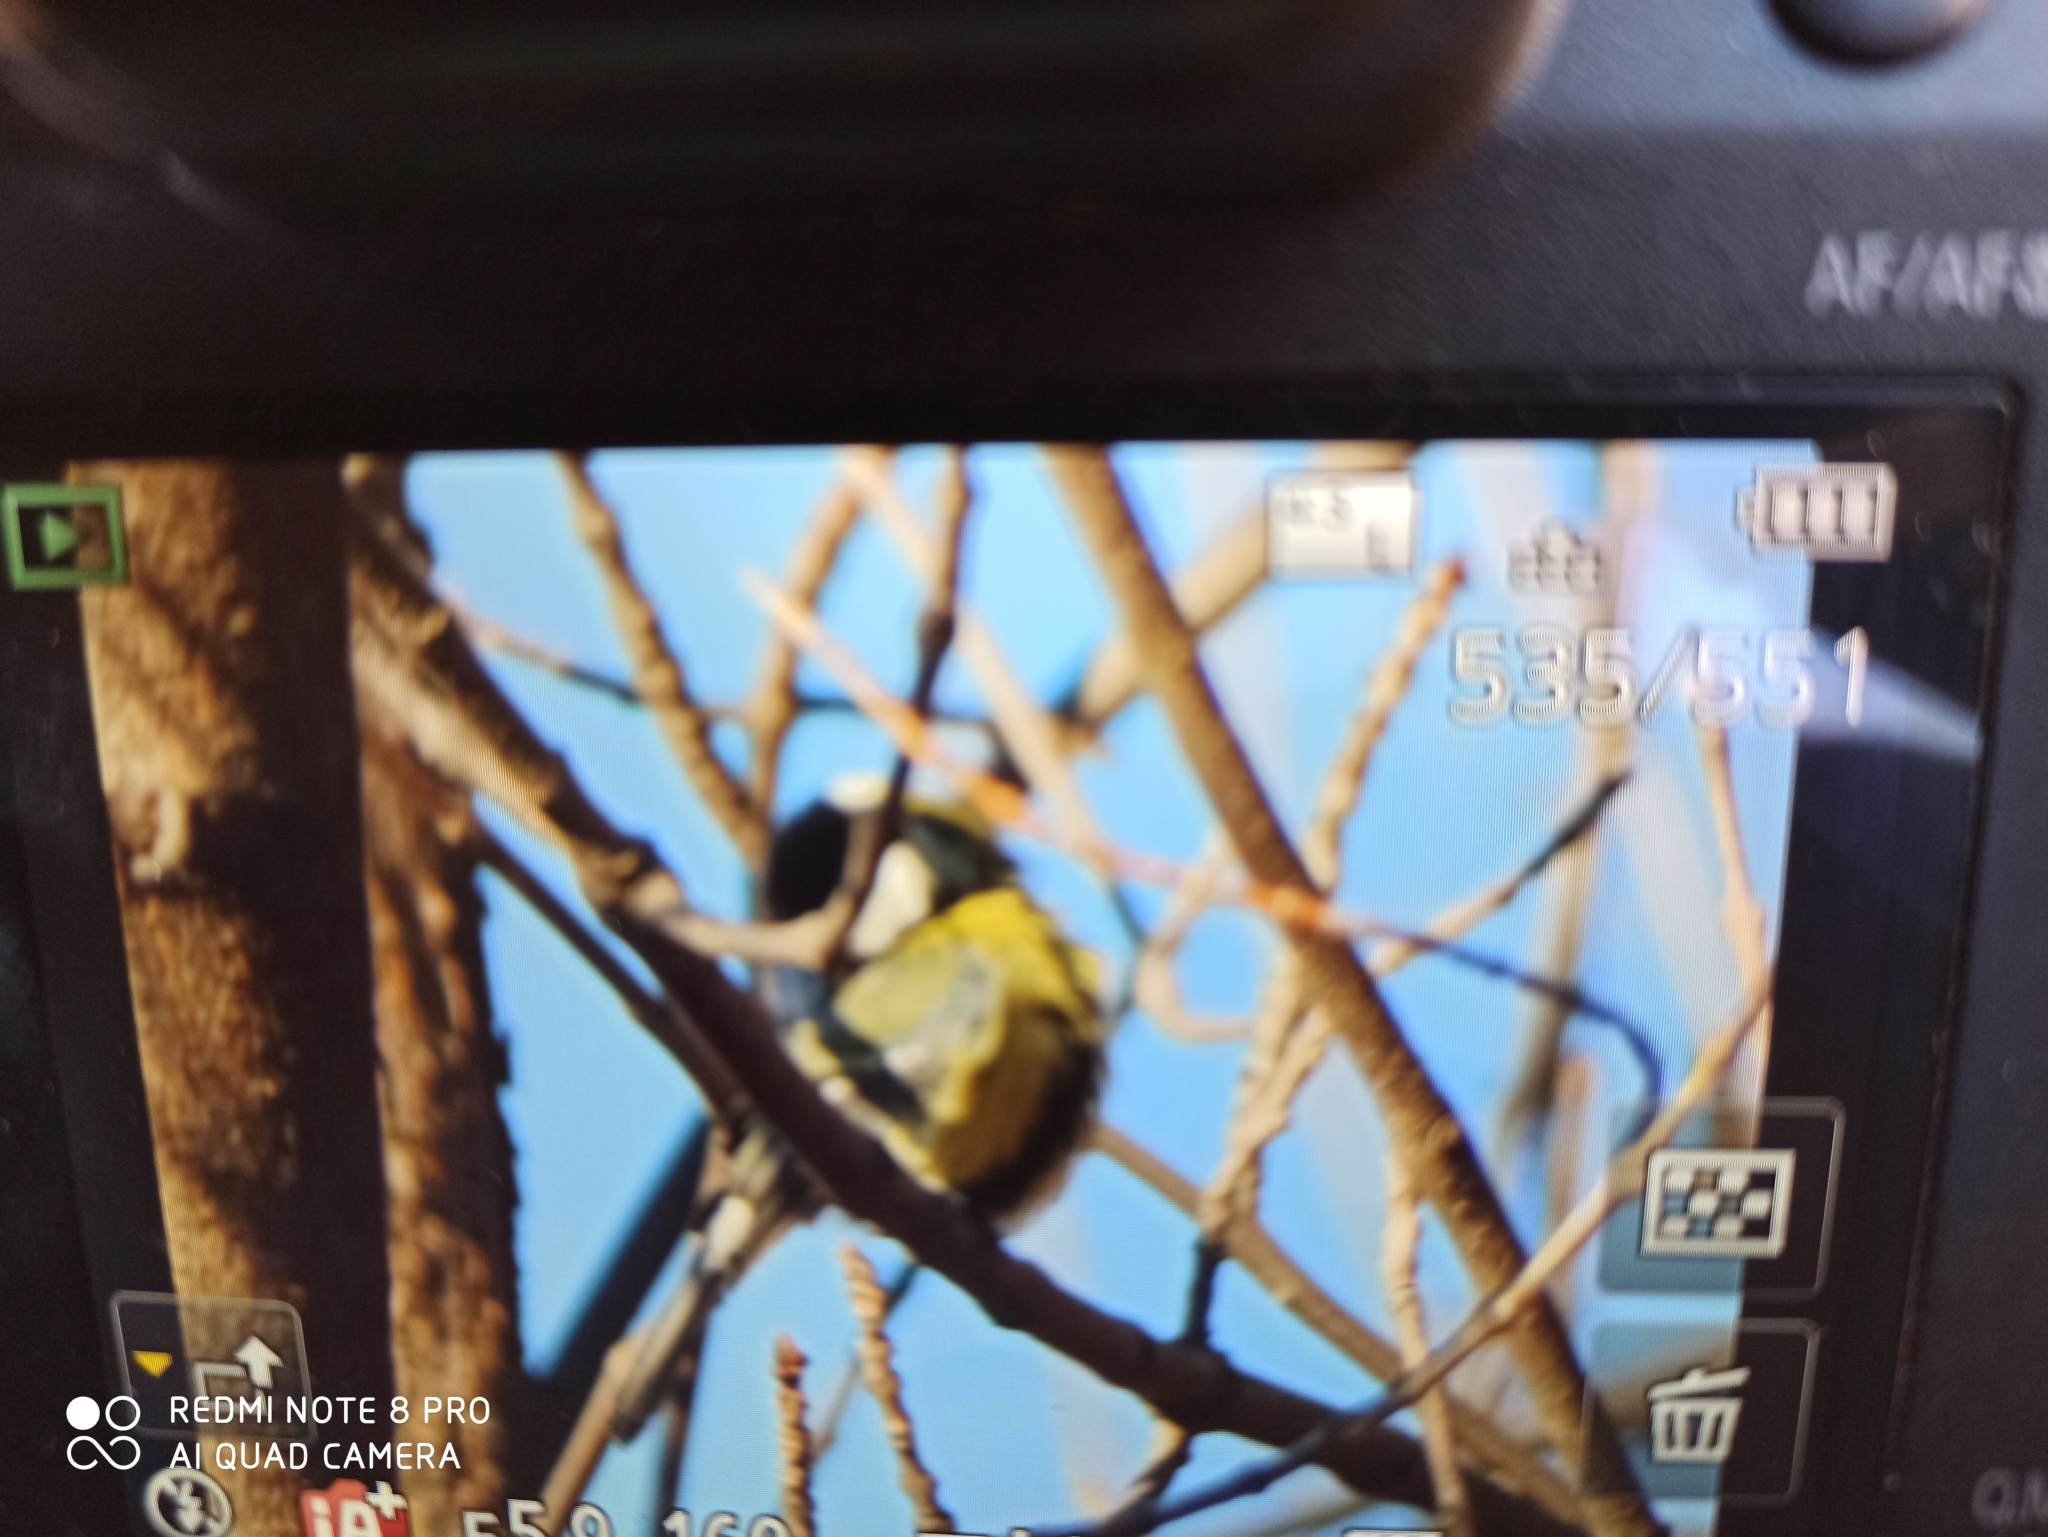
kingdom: Animalia
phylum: Chordata
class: Aves
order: Passeriformes
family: Paridae
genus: Parus
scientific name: Parus major
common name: Great tit
